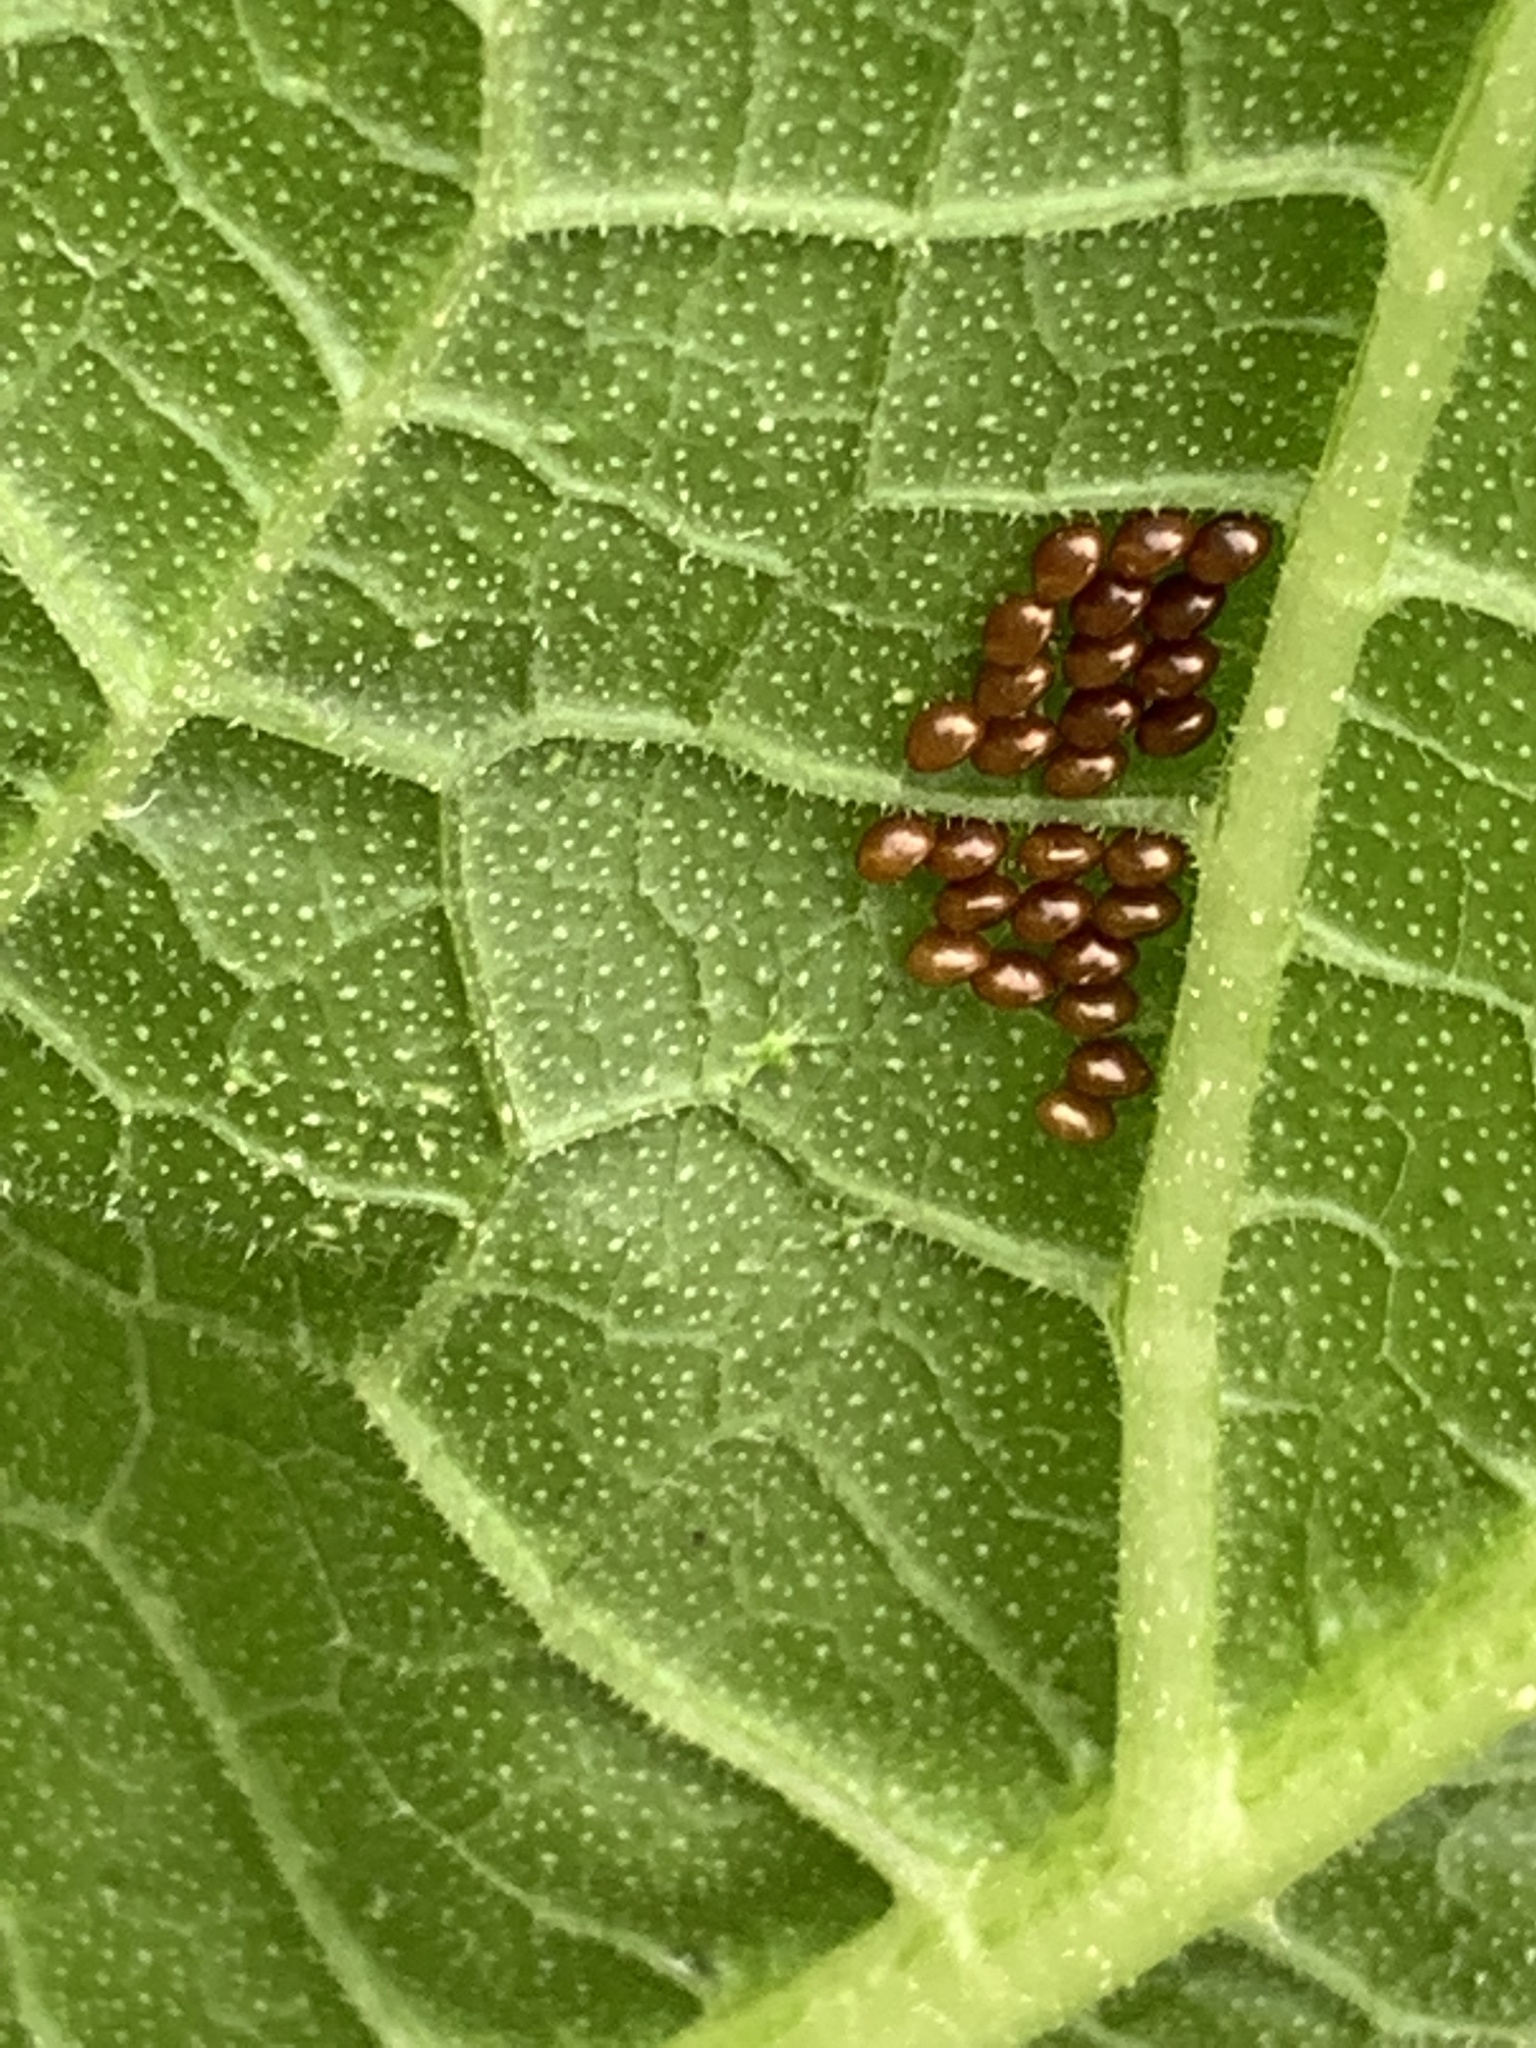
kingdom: Animalia
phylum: Arthropoda
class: Insecta
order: Hemiptera
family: Coreidae
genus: Anasa
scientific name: Anasa tristis
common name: Squash bug
